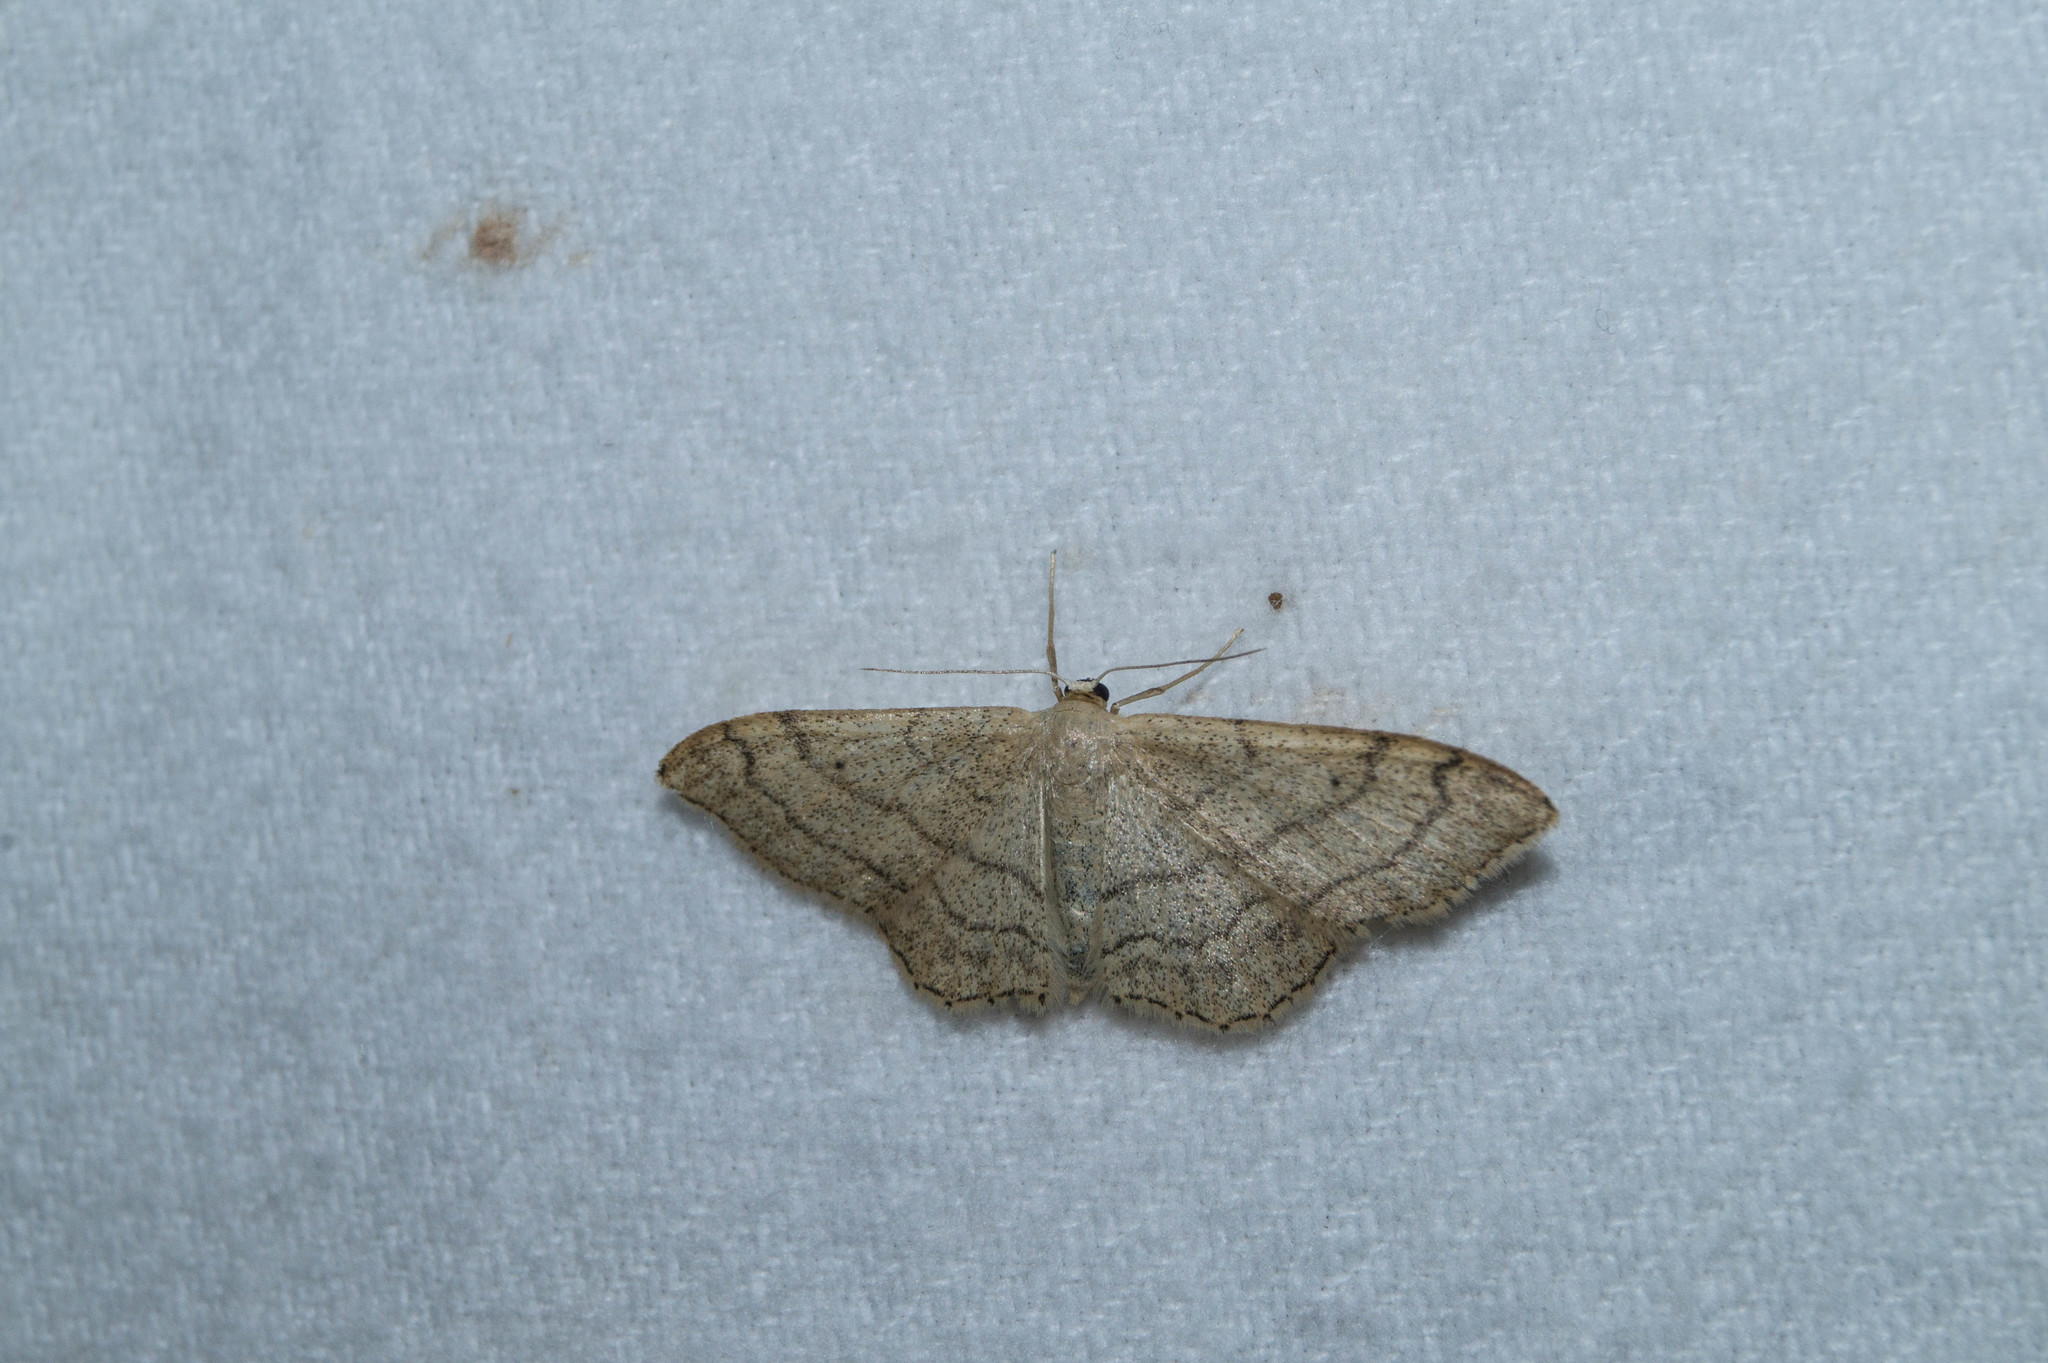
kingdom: Animalia
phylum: Arthropoda
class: Insecta
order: Lepidoptera
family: Geometridae
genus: Idaea
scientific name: Idaea aversata
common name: Riband wave
